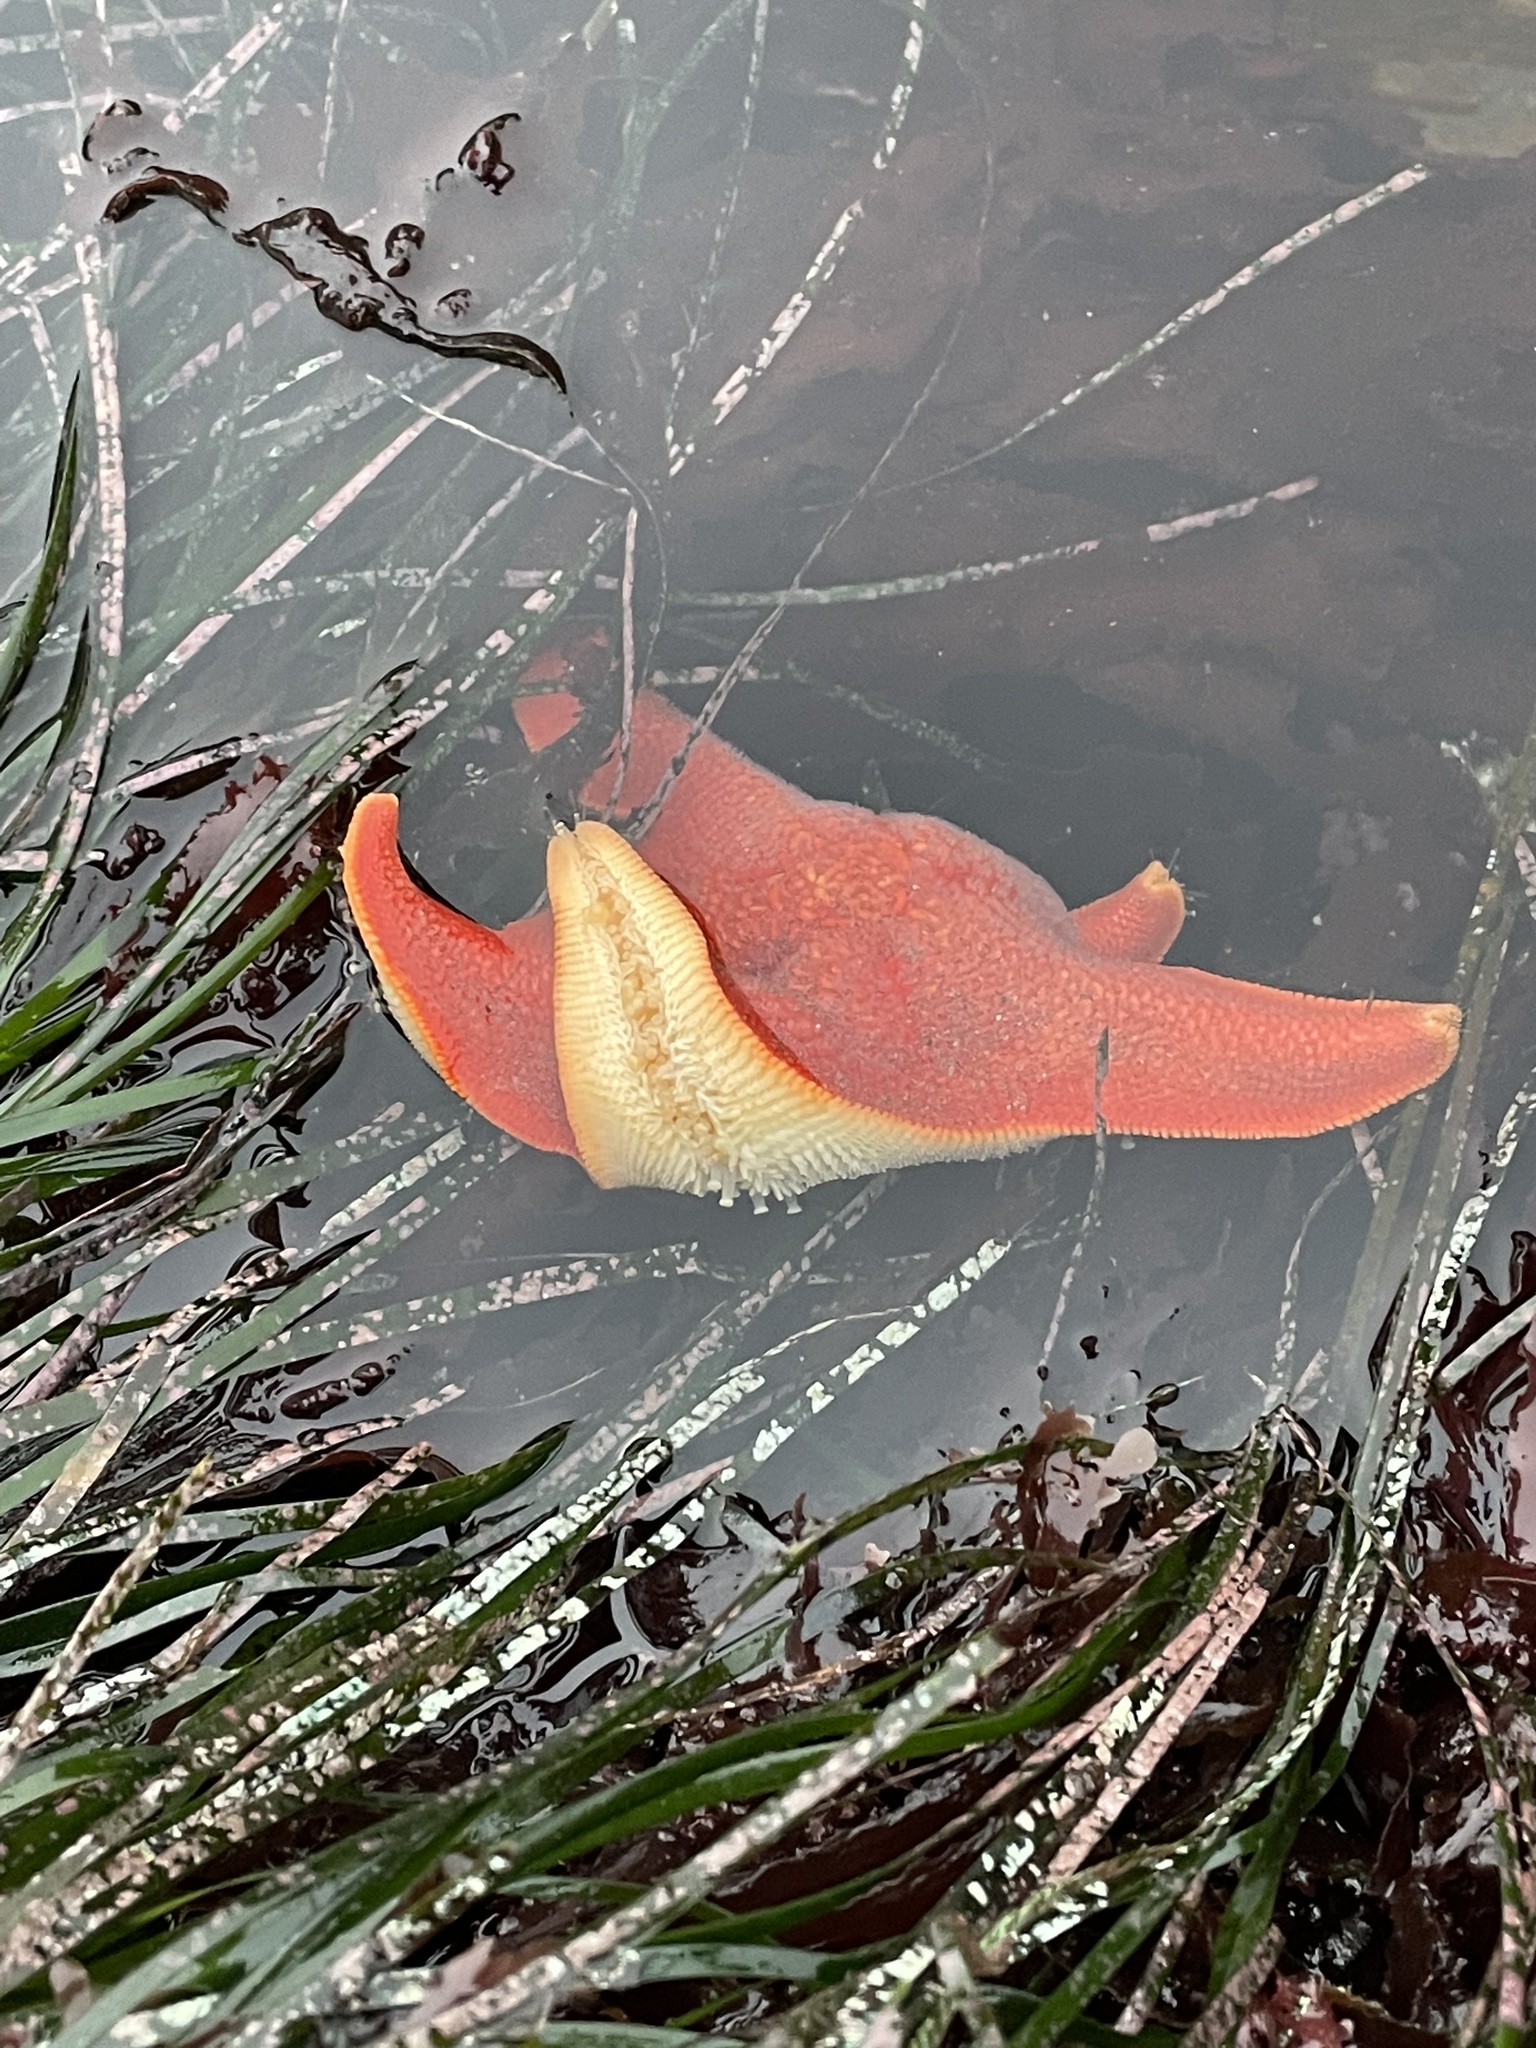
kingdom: Animalia
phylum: Echinodermata
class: Asteroidea
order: Valvatida
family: Asterinidae
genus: Patiria
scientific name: Patiria miniata
